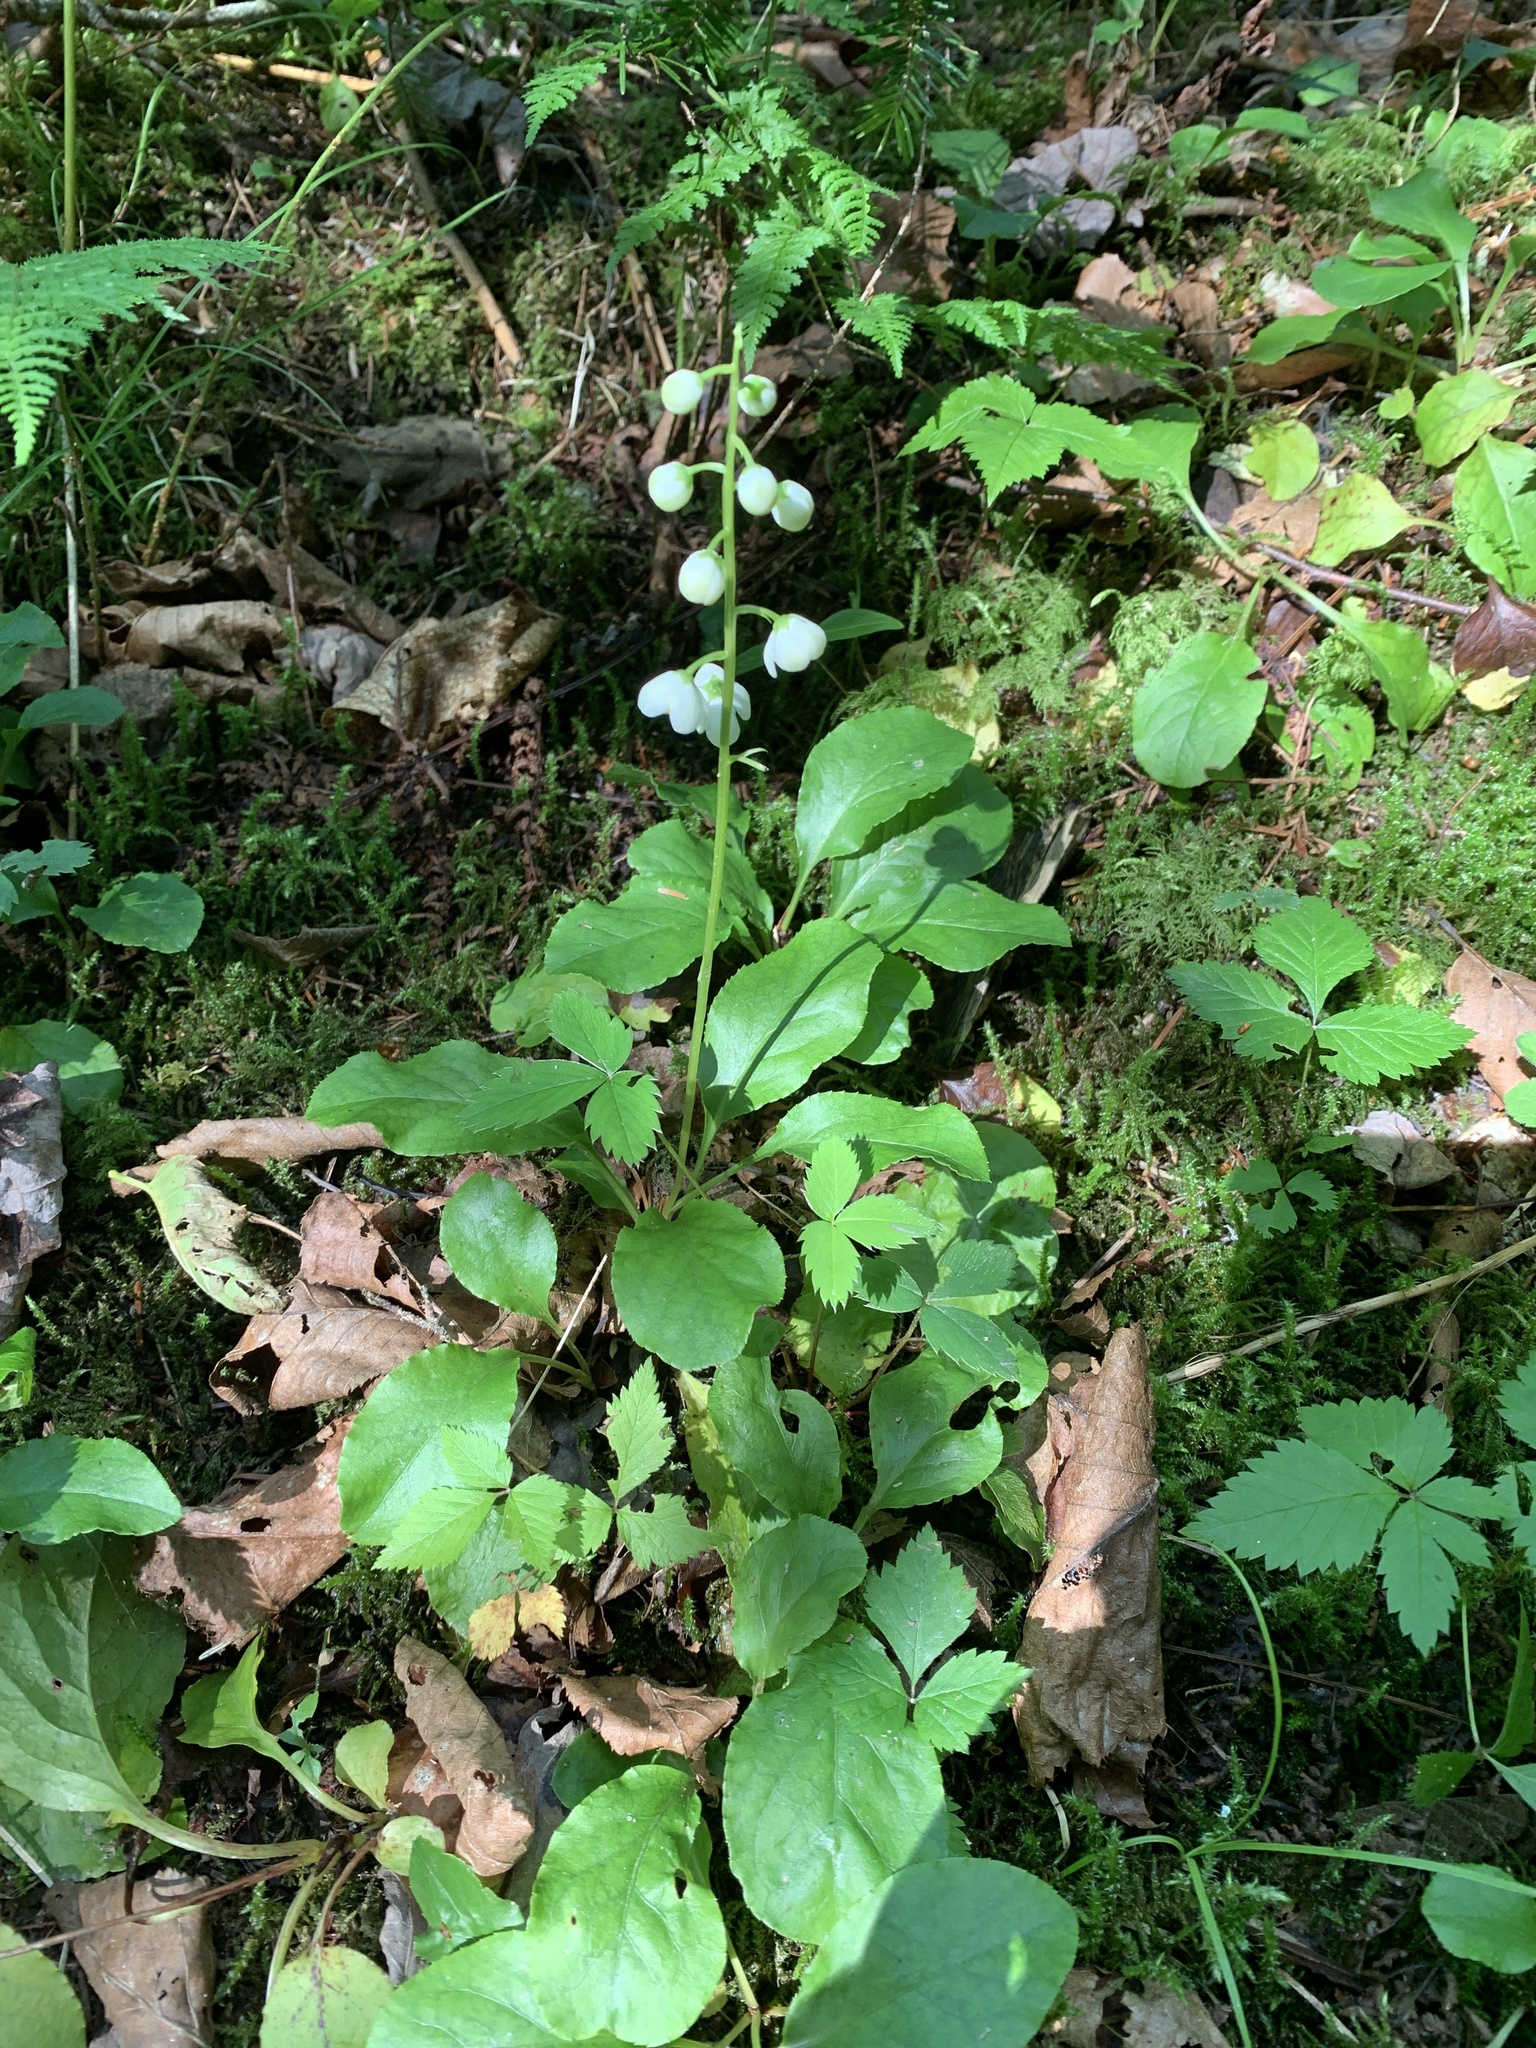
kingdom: Plantae
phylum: Tracheophyta
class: Magnoliopsida
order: Ericales
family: Ericaceae
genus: Pyrola
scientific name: Pyrola elliptica
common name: Shinleaf
